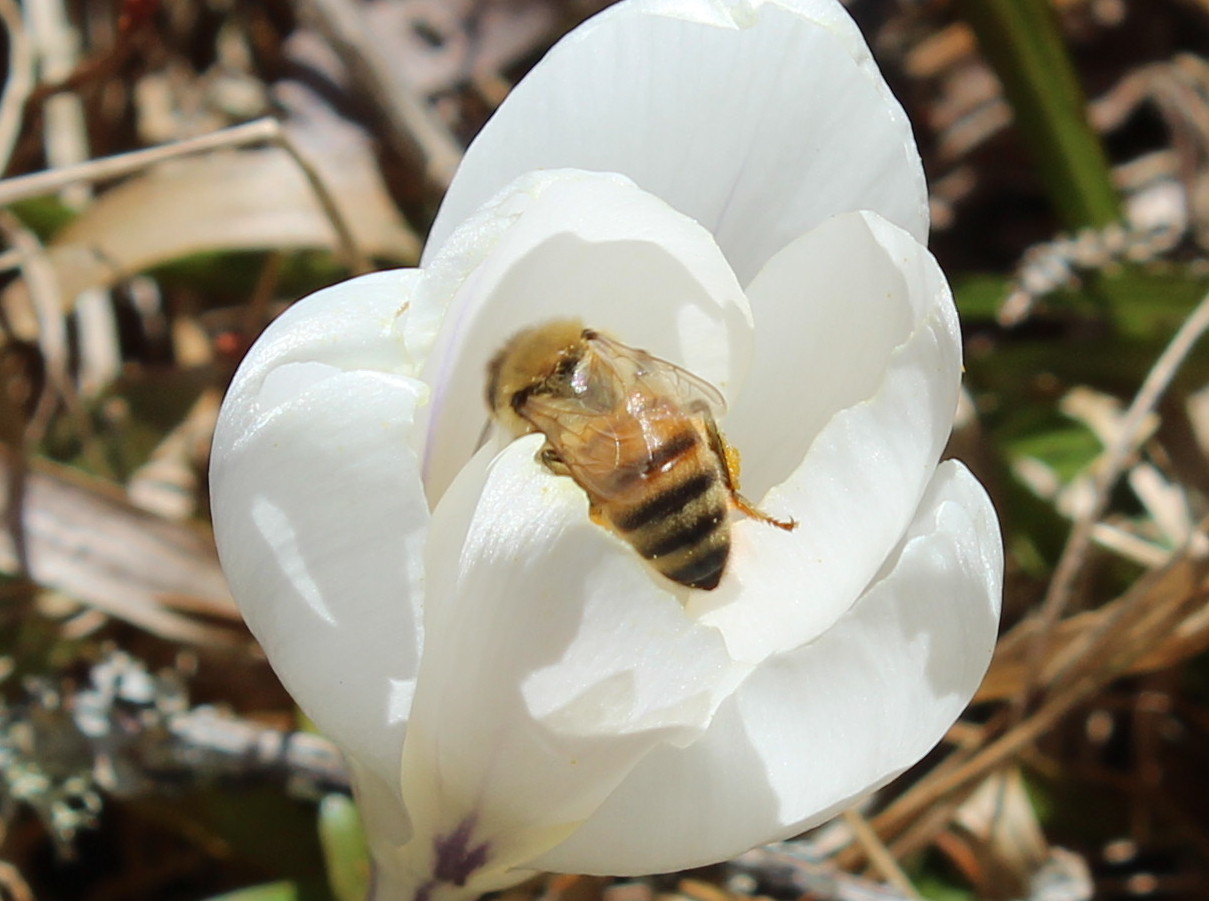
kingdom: Animalia
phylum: Arthropoda
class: Insecta
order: Hymenoptera
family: Apidae
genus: Apis
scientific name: Apis mellifera
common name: Honey bee
